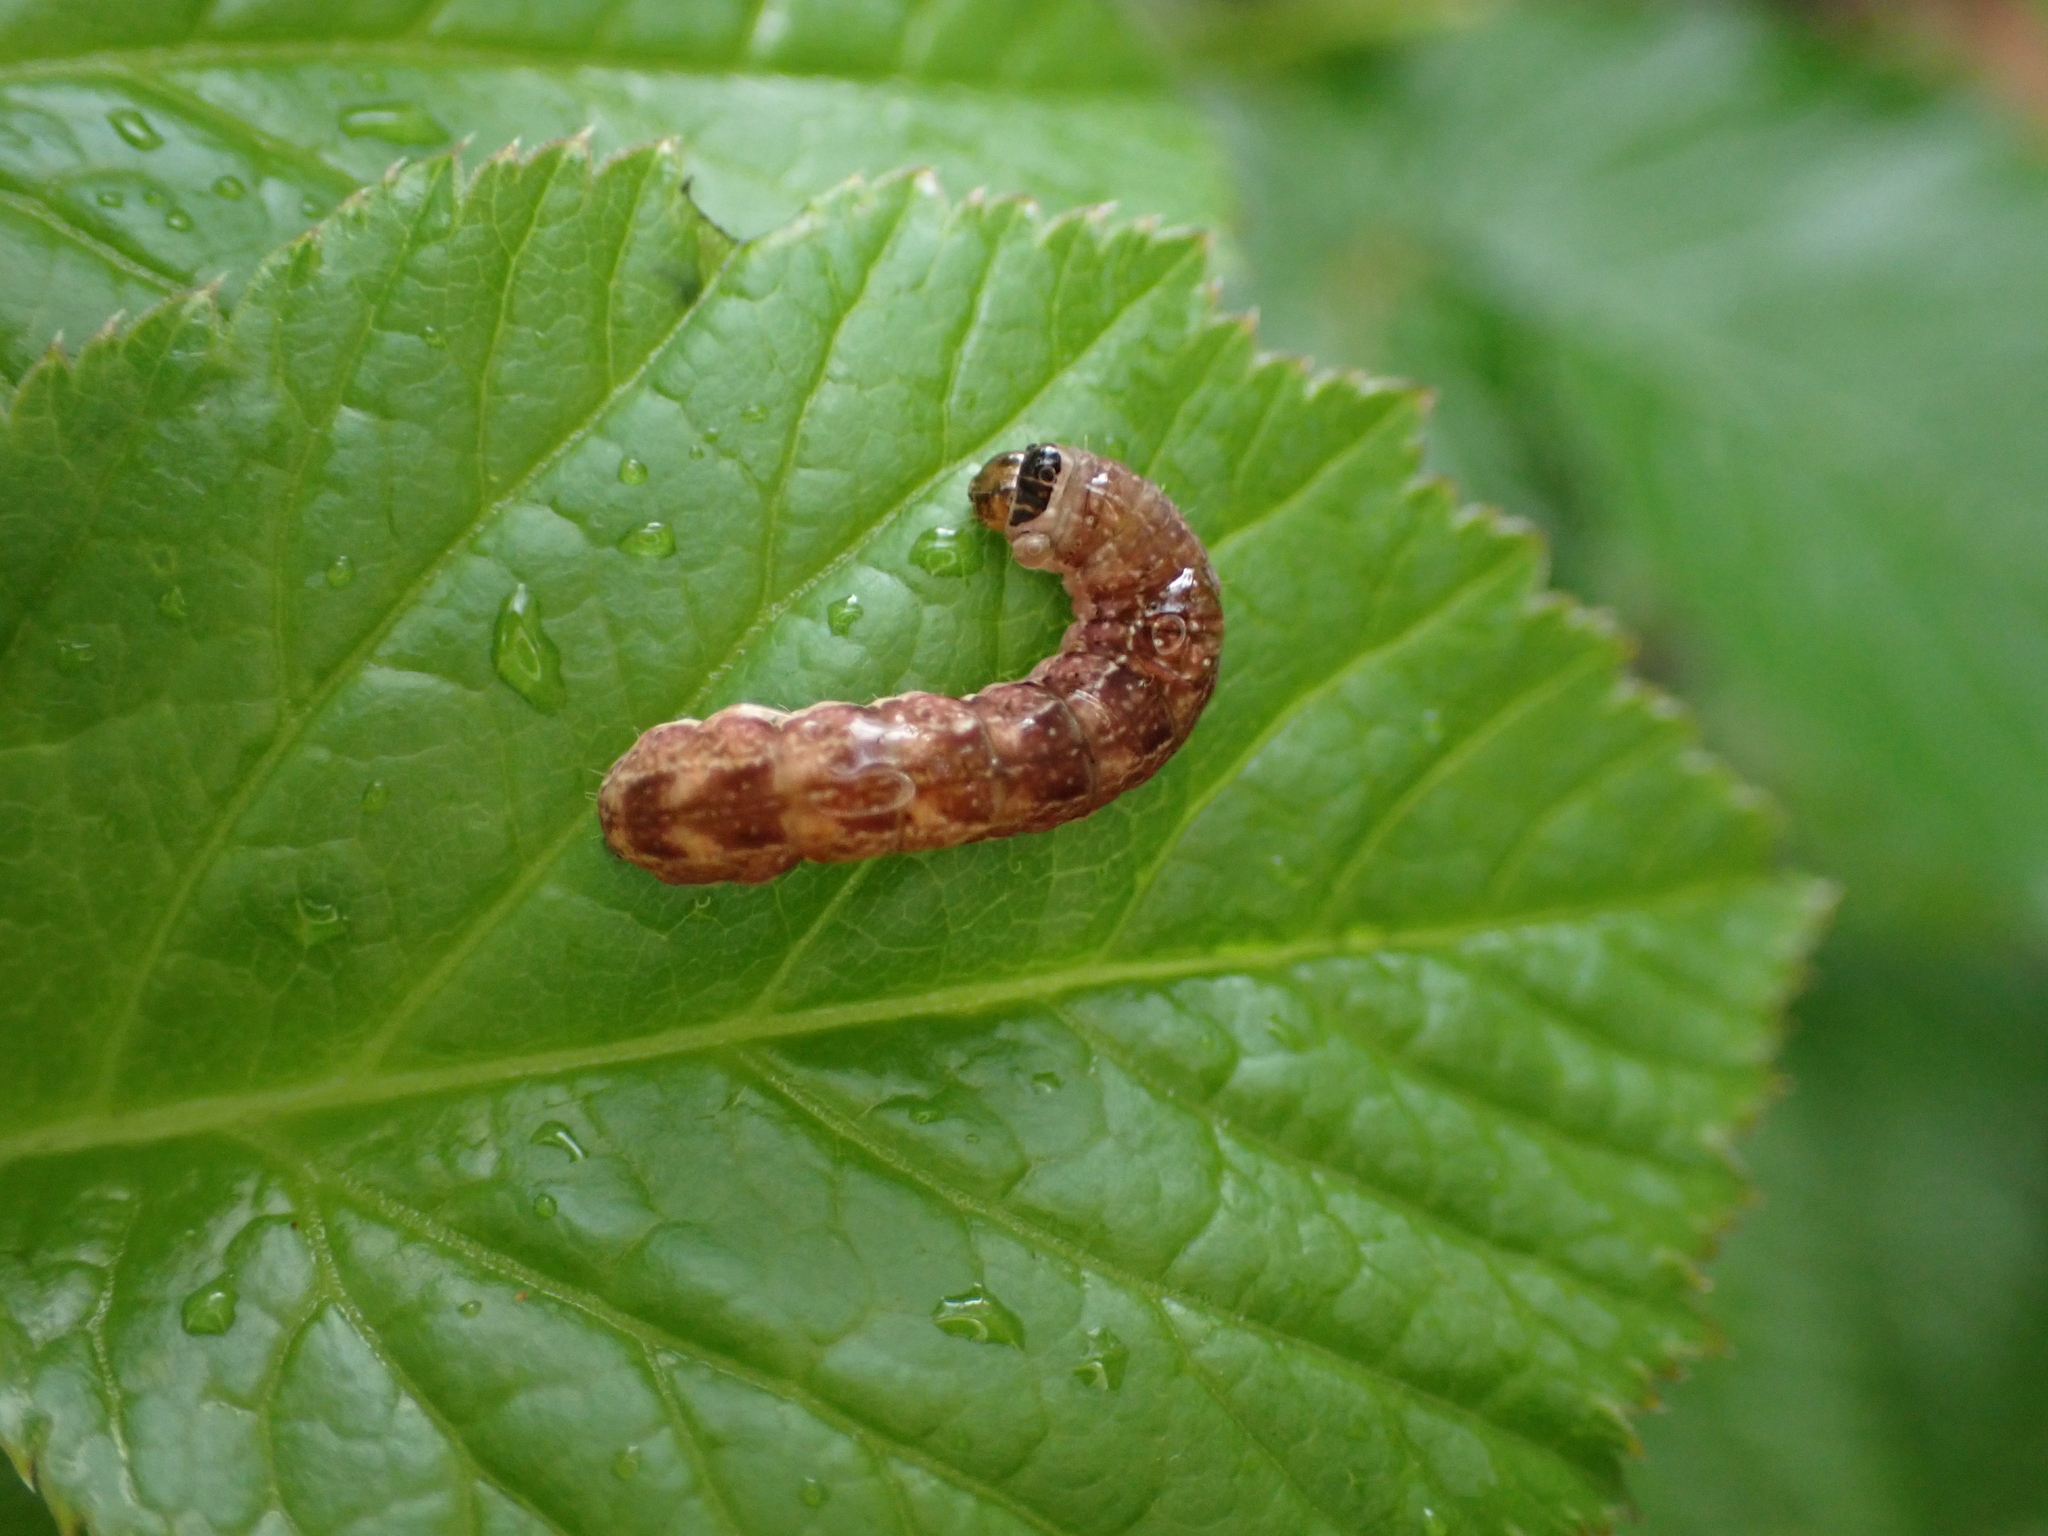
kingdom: Animalia
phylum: Arthropoda
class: Insecta
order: Lepidoptera
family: Noctuidae
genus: Sunira
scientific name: Sunira circellaris
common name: Brick
